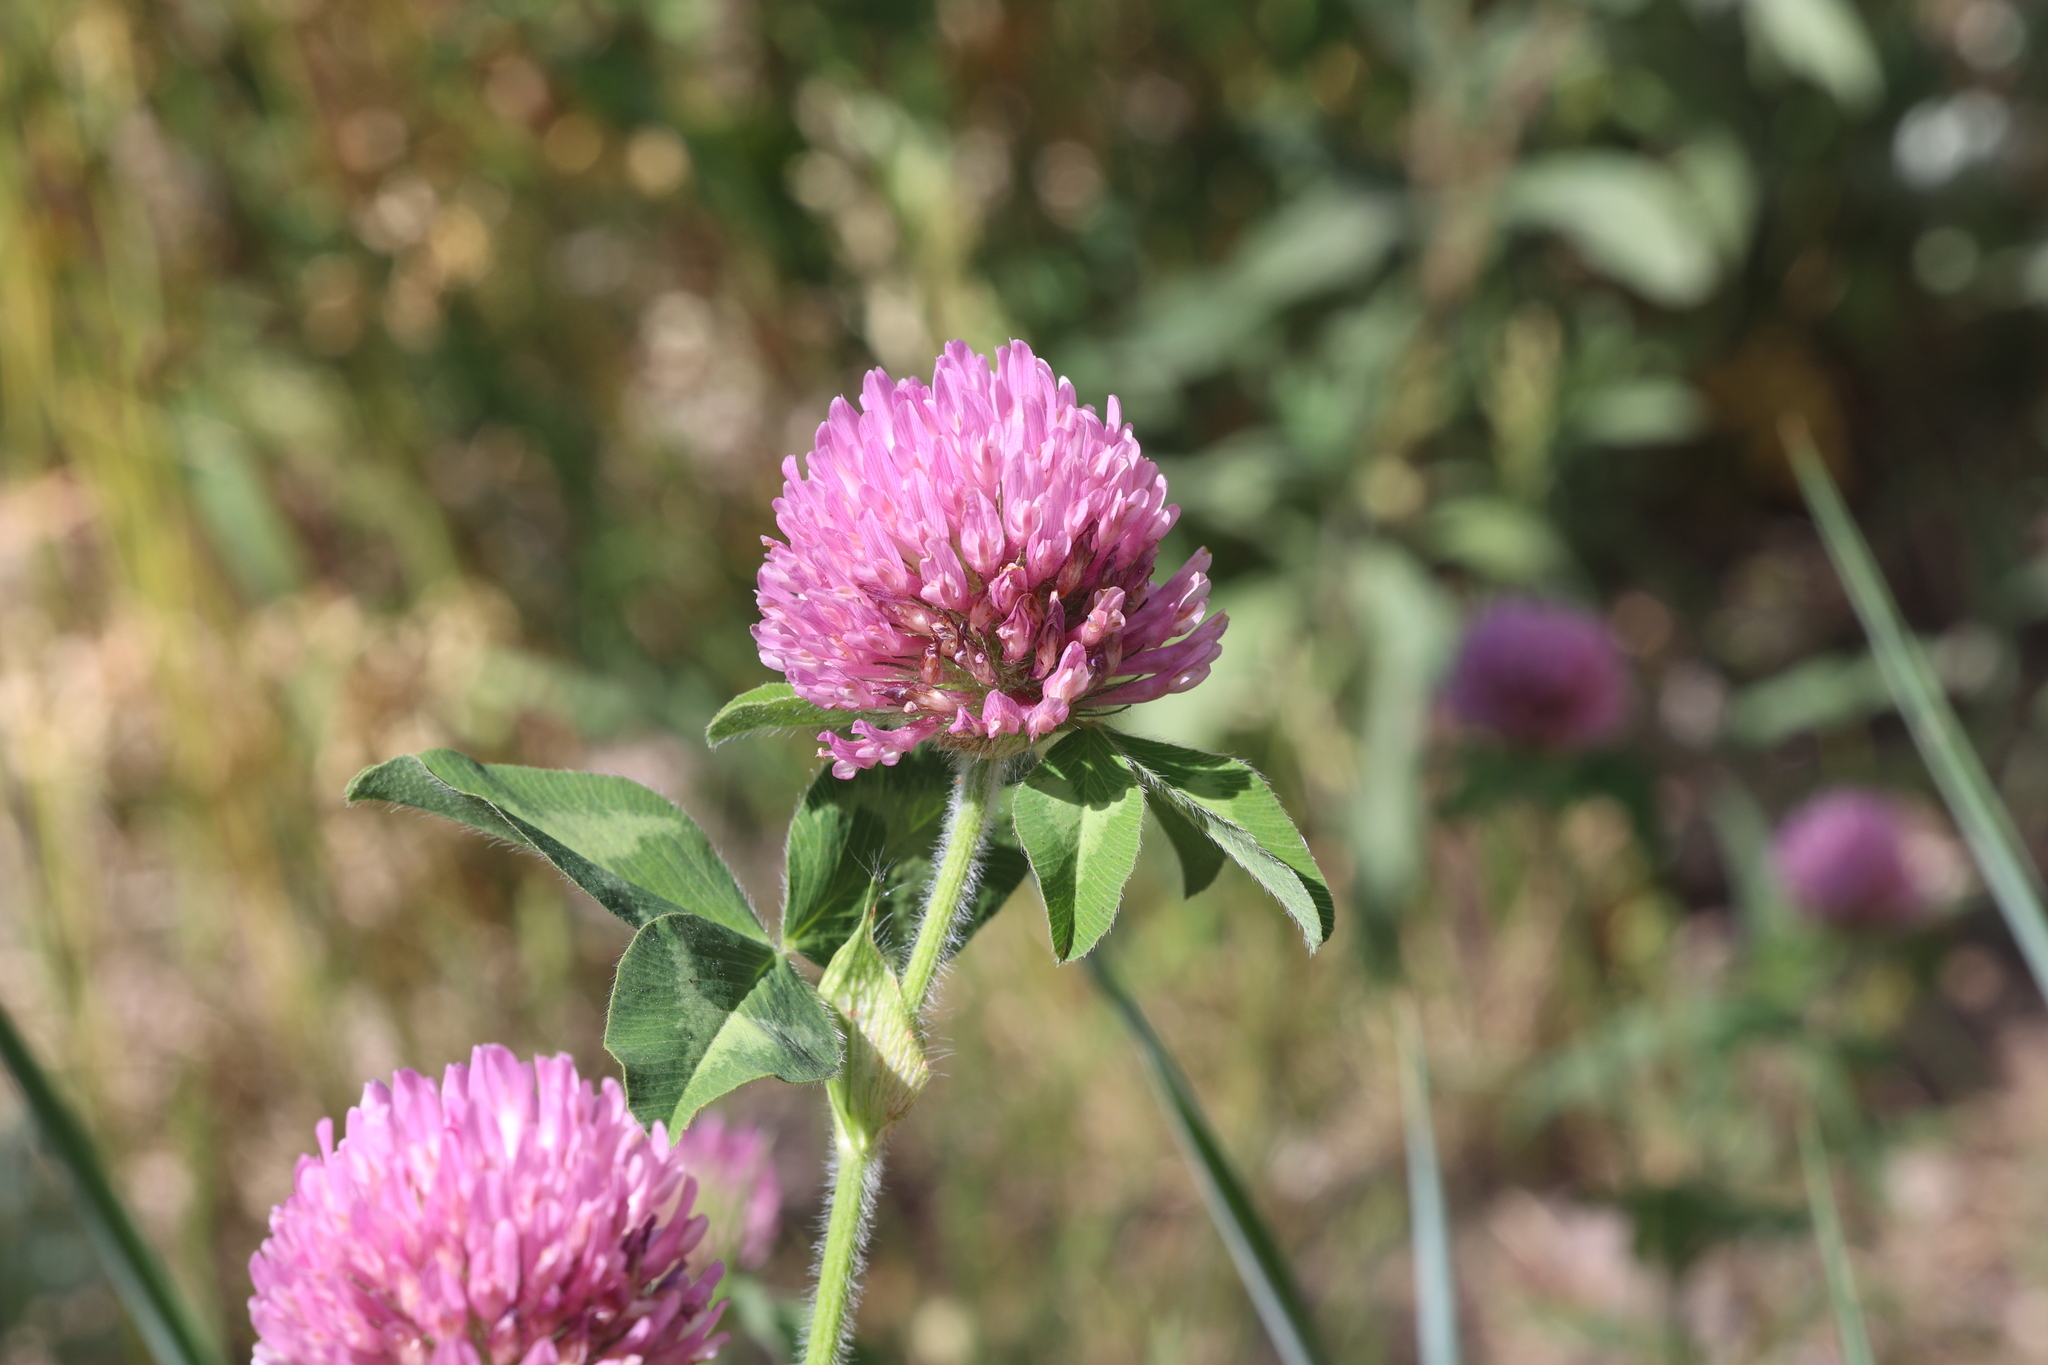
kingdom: Plantae
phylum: Tracheophyta
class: Magnoliopsida
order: Fabales
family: Fabaceae
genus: Trifolium
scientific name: Trifolium pratense
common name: Red clover
